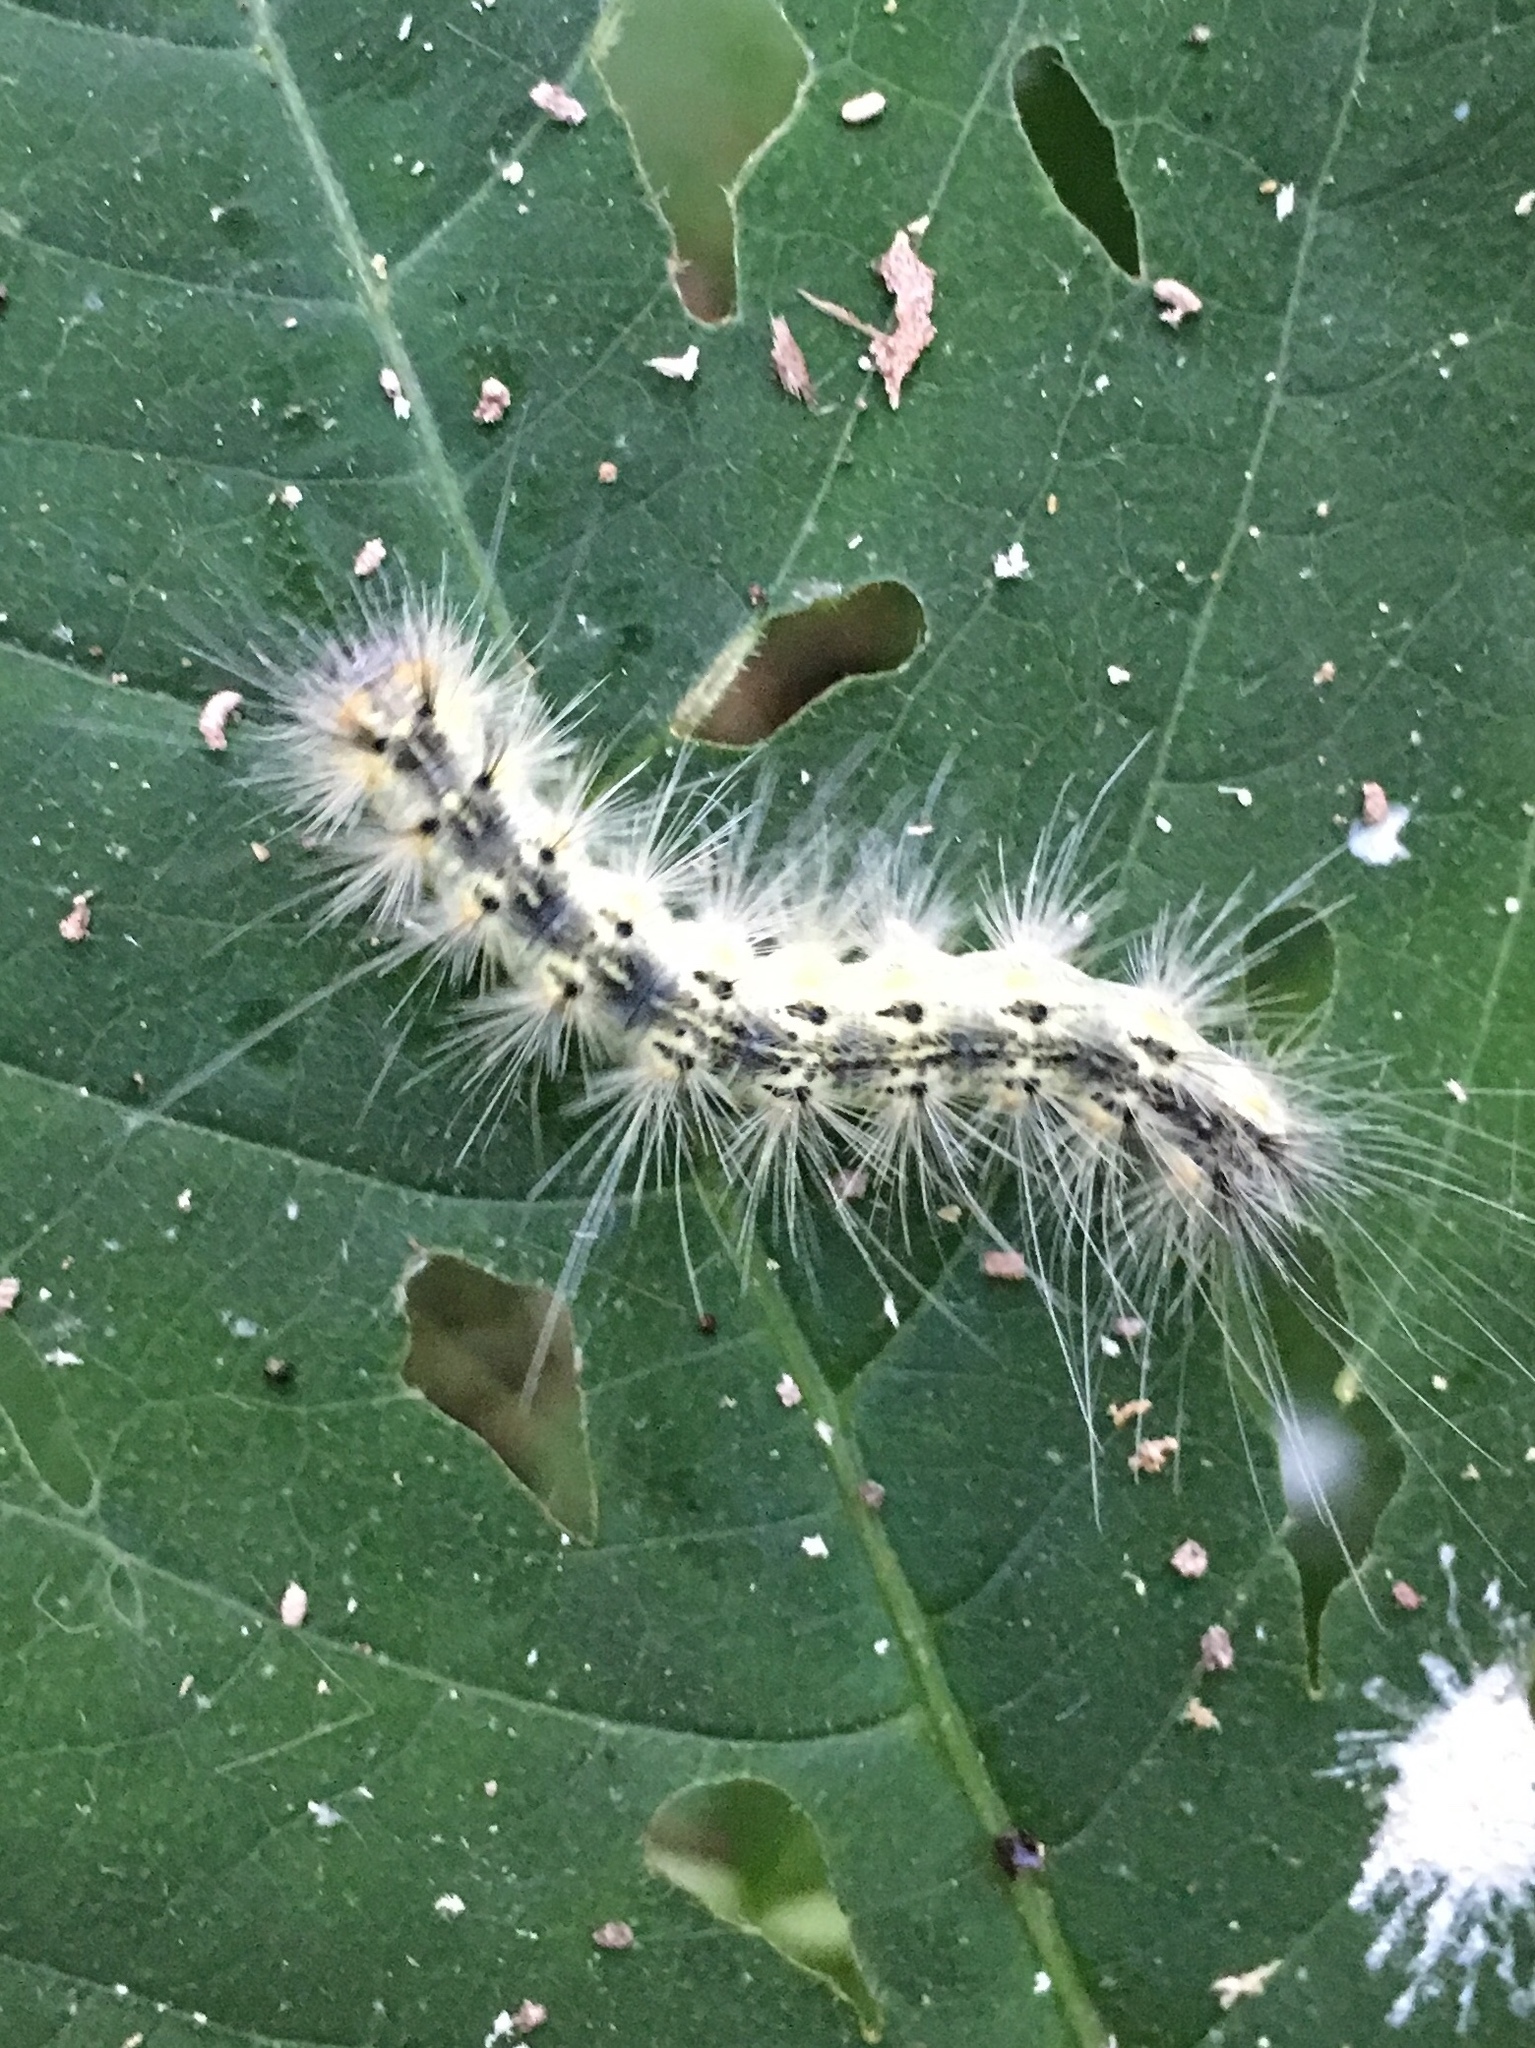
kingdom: Animalia
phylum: Arthropoda
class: Insecta
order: Lepidoptera
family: Erebidae
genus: Hyphantria
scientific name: Hyphantria cunea
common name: American white moth
